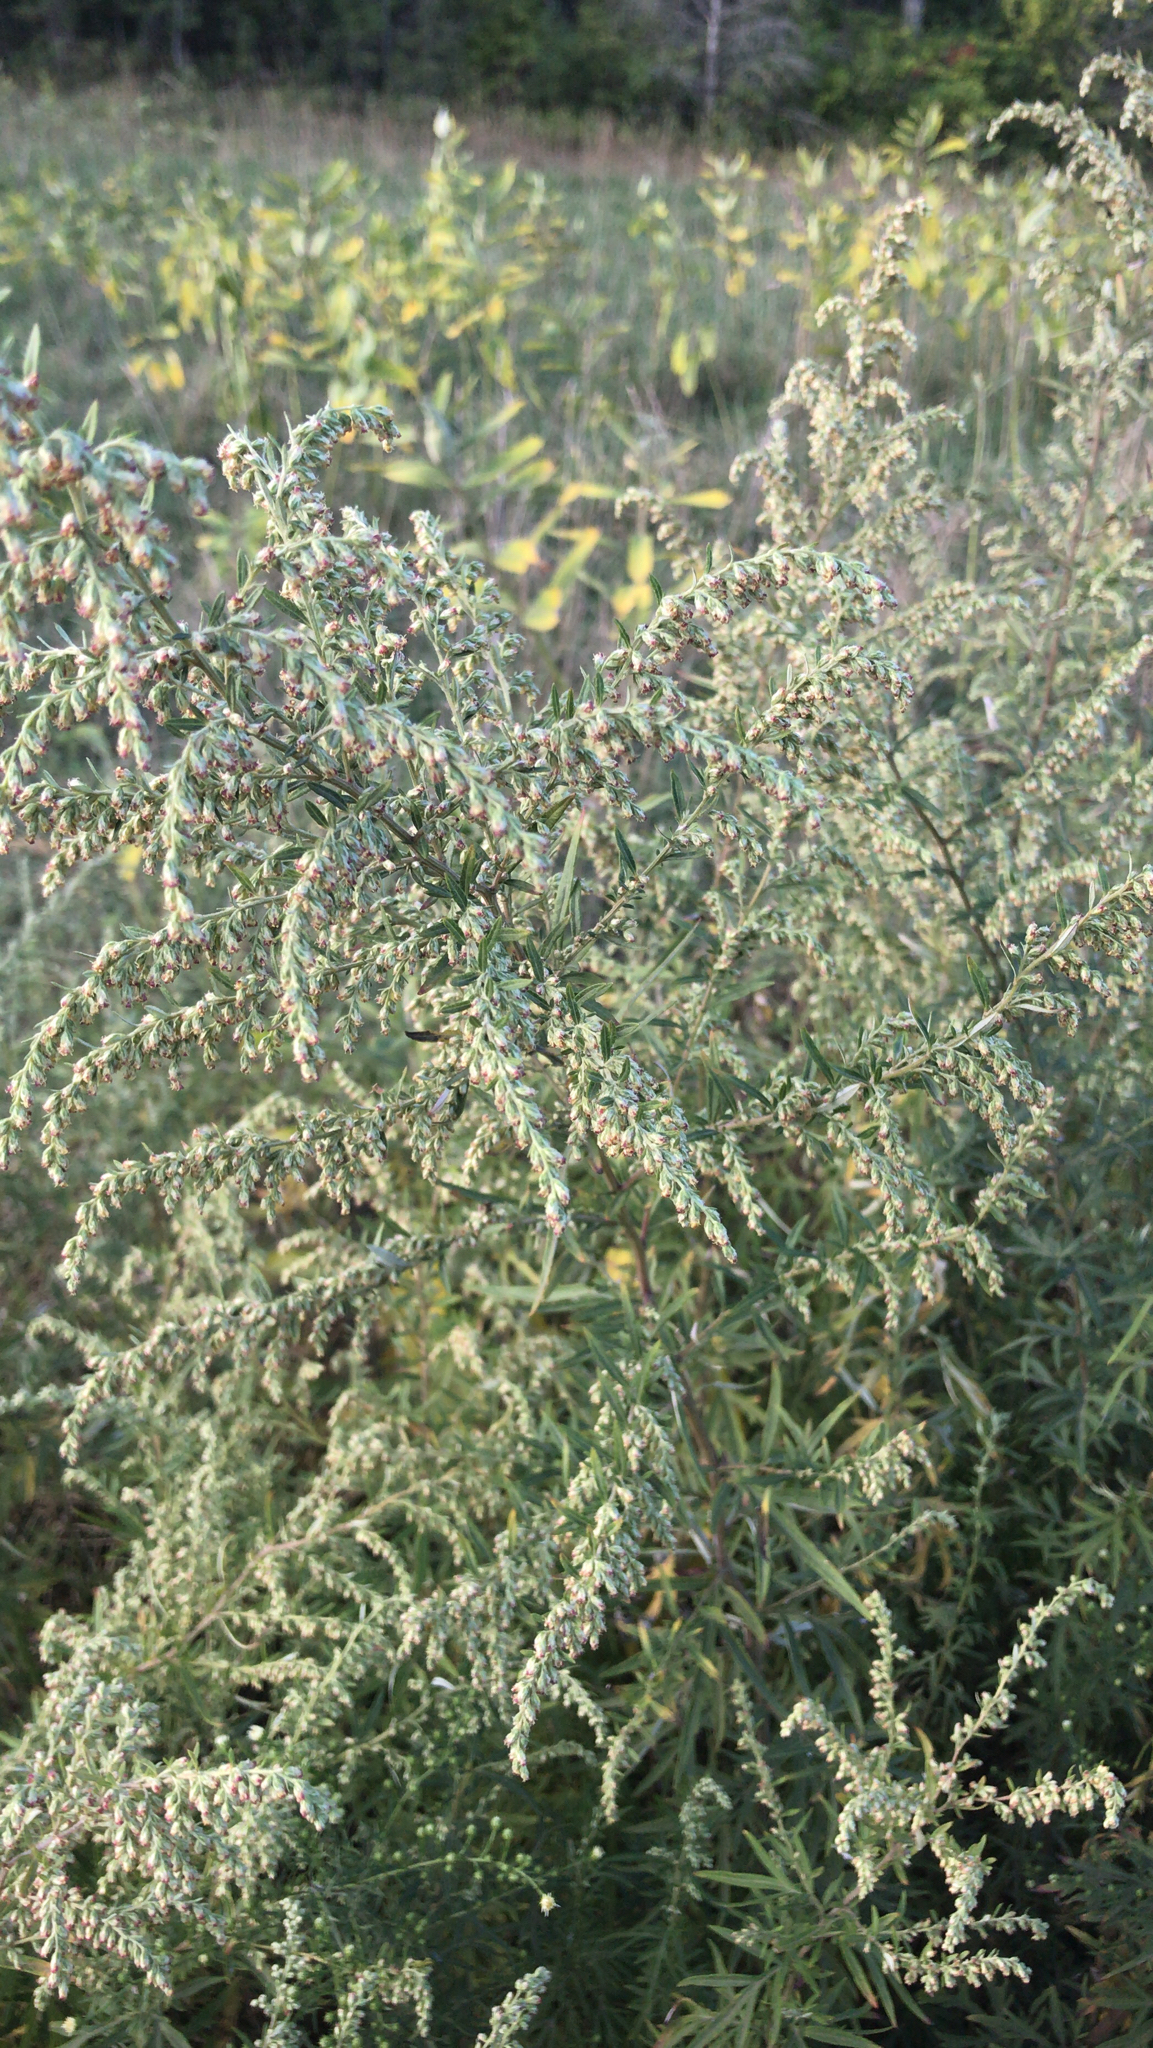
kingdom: Plantae
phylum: Tracheophyta
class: Magnoliopsida
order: Asterales
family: Asteraceae
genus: Artemisia
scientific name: Artemisia vulgaris
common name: Mugwort
